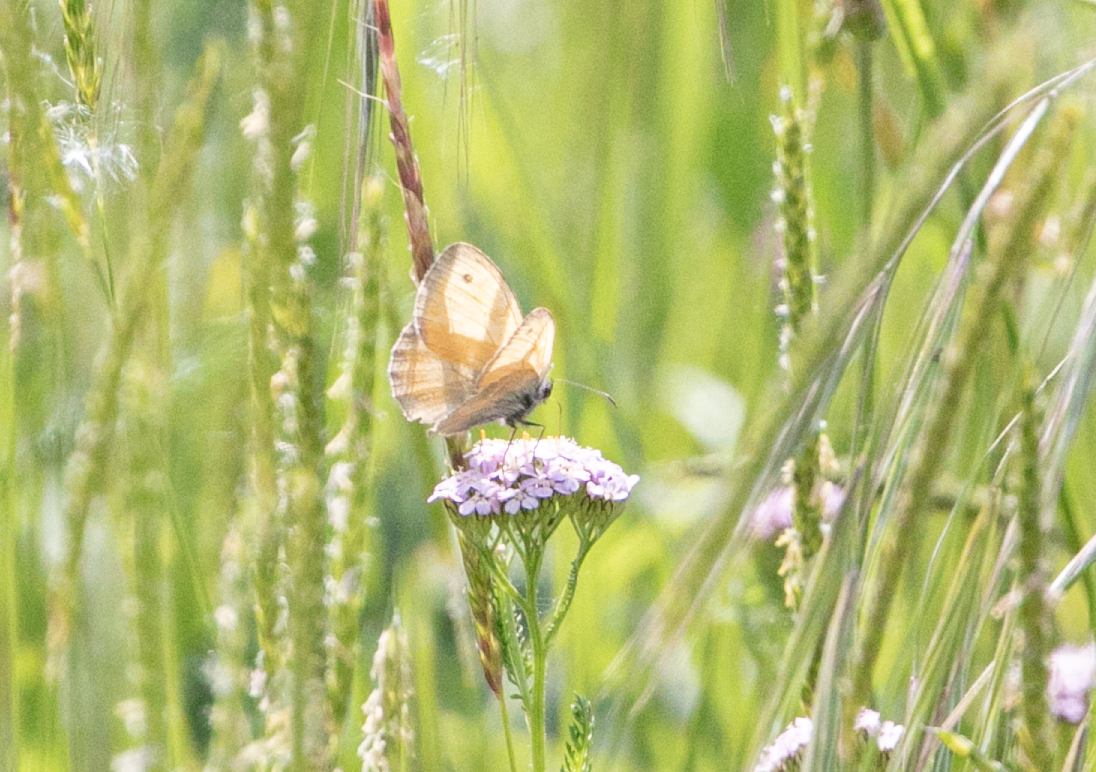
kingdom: Animalia
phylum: Arthropoda
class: Insecta
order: Lepidoptera
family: Nymphalidae
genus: Coenonympha
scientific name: Coenonympha pamphilus
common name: Small heath
